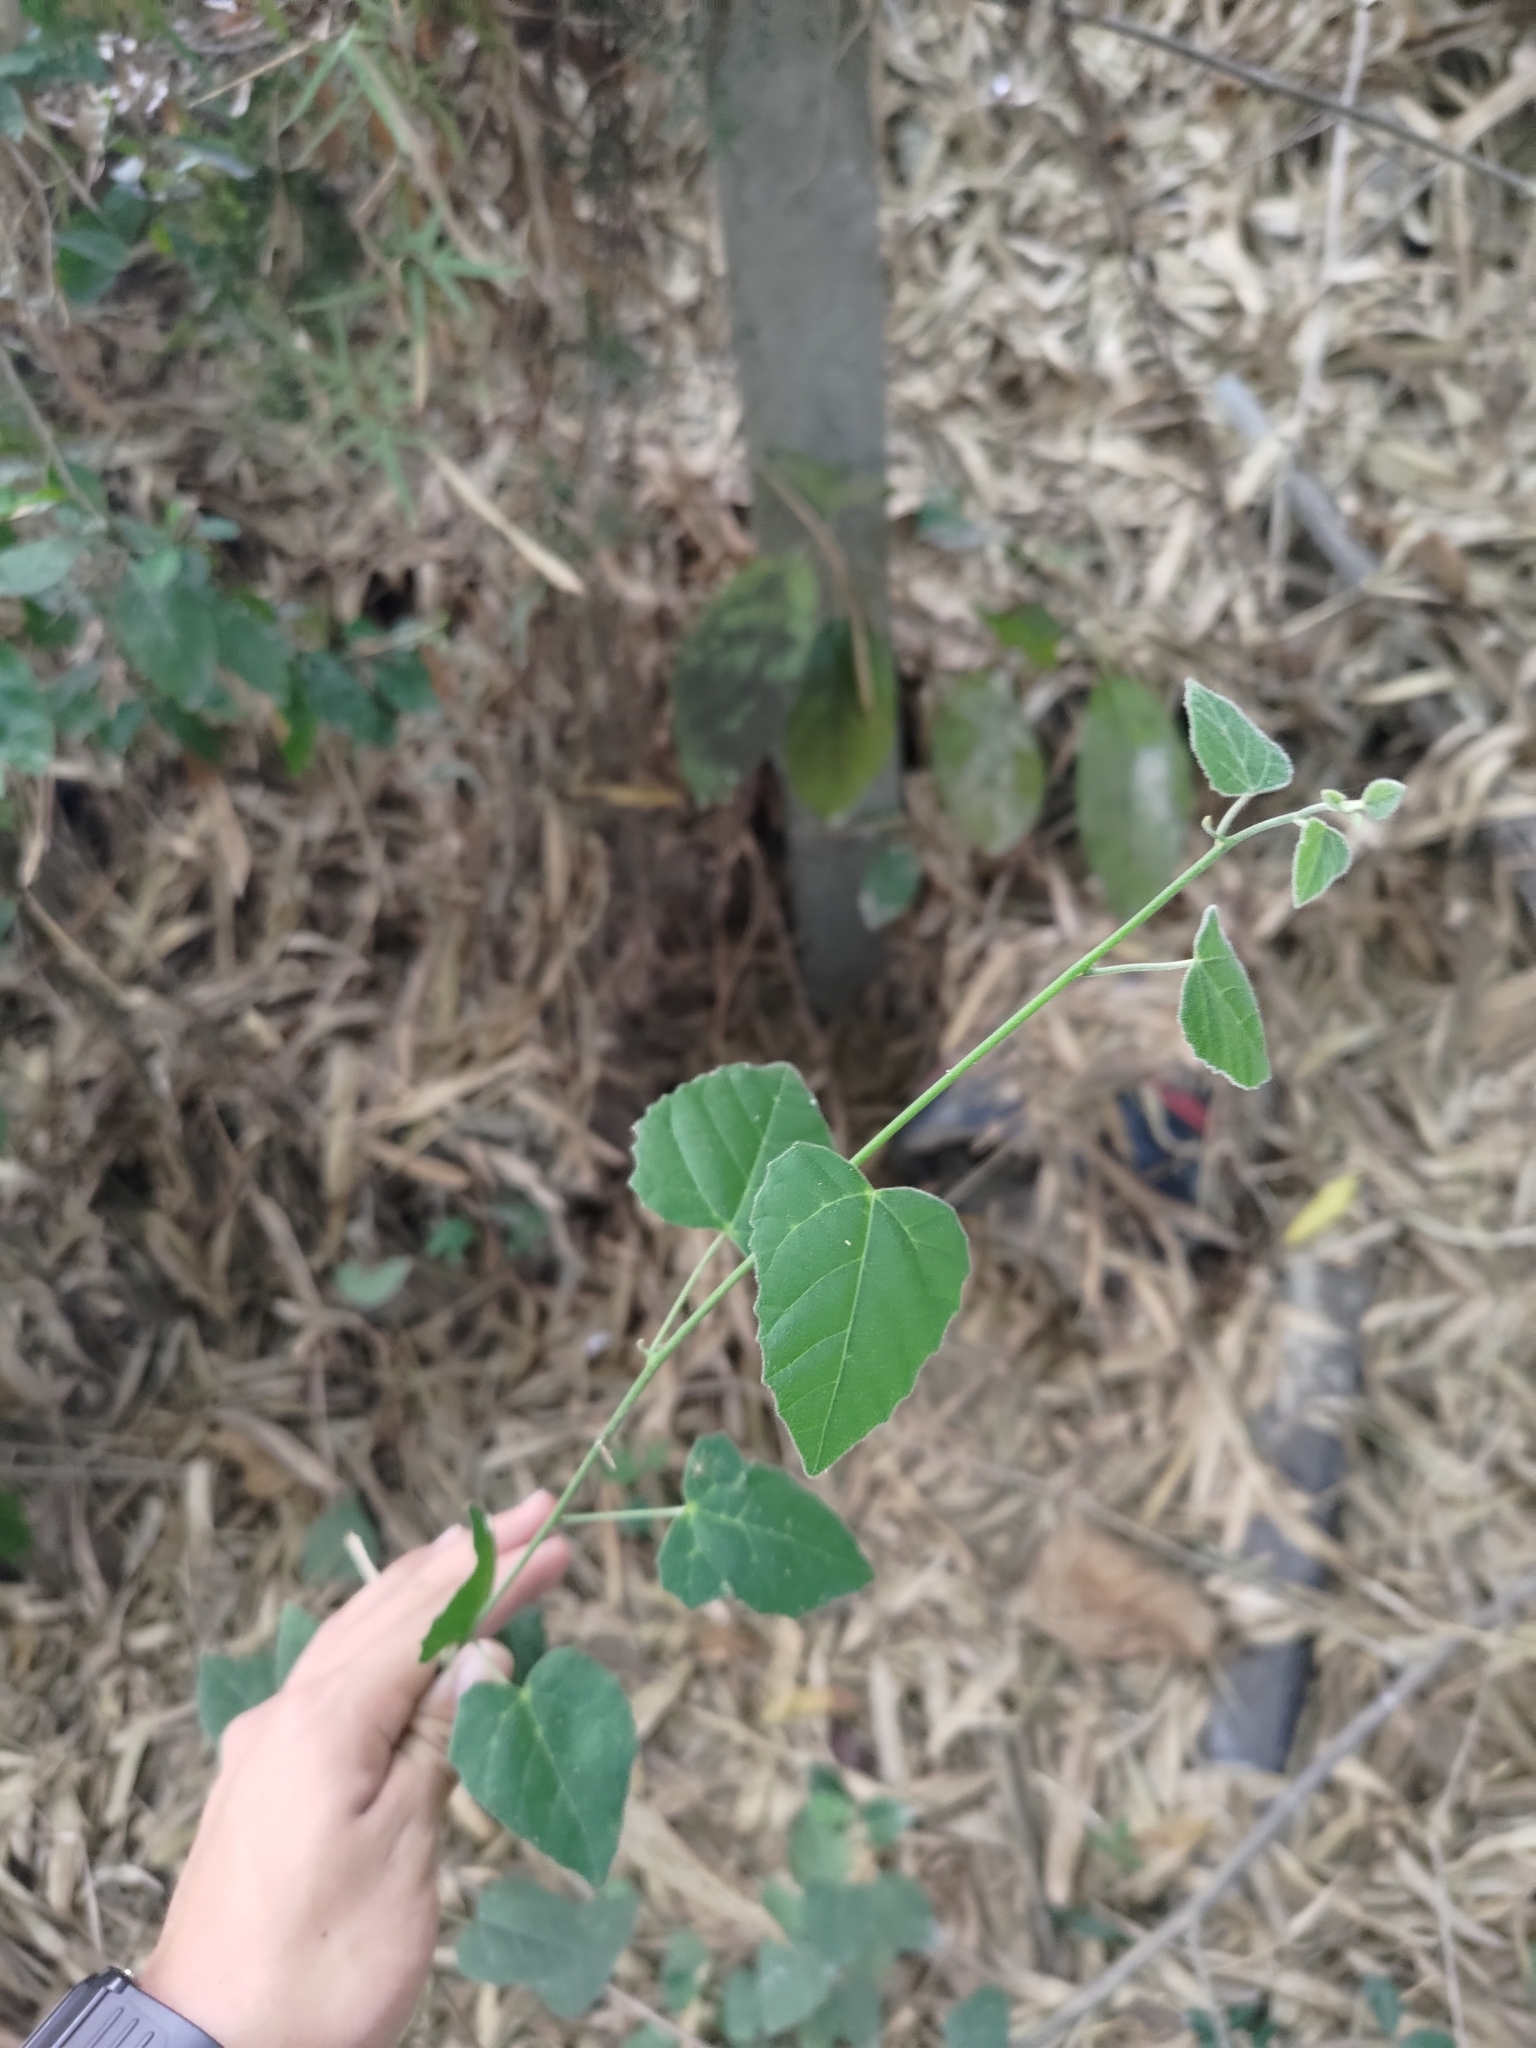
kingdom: Plantae
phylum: Tracheophyta
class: Magnoliopsida
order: Malpighiales
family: Euphorbiaceae
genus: Mallotus
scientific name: Mallotus repandus
